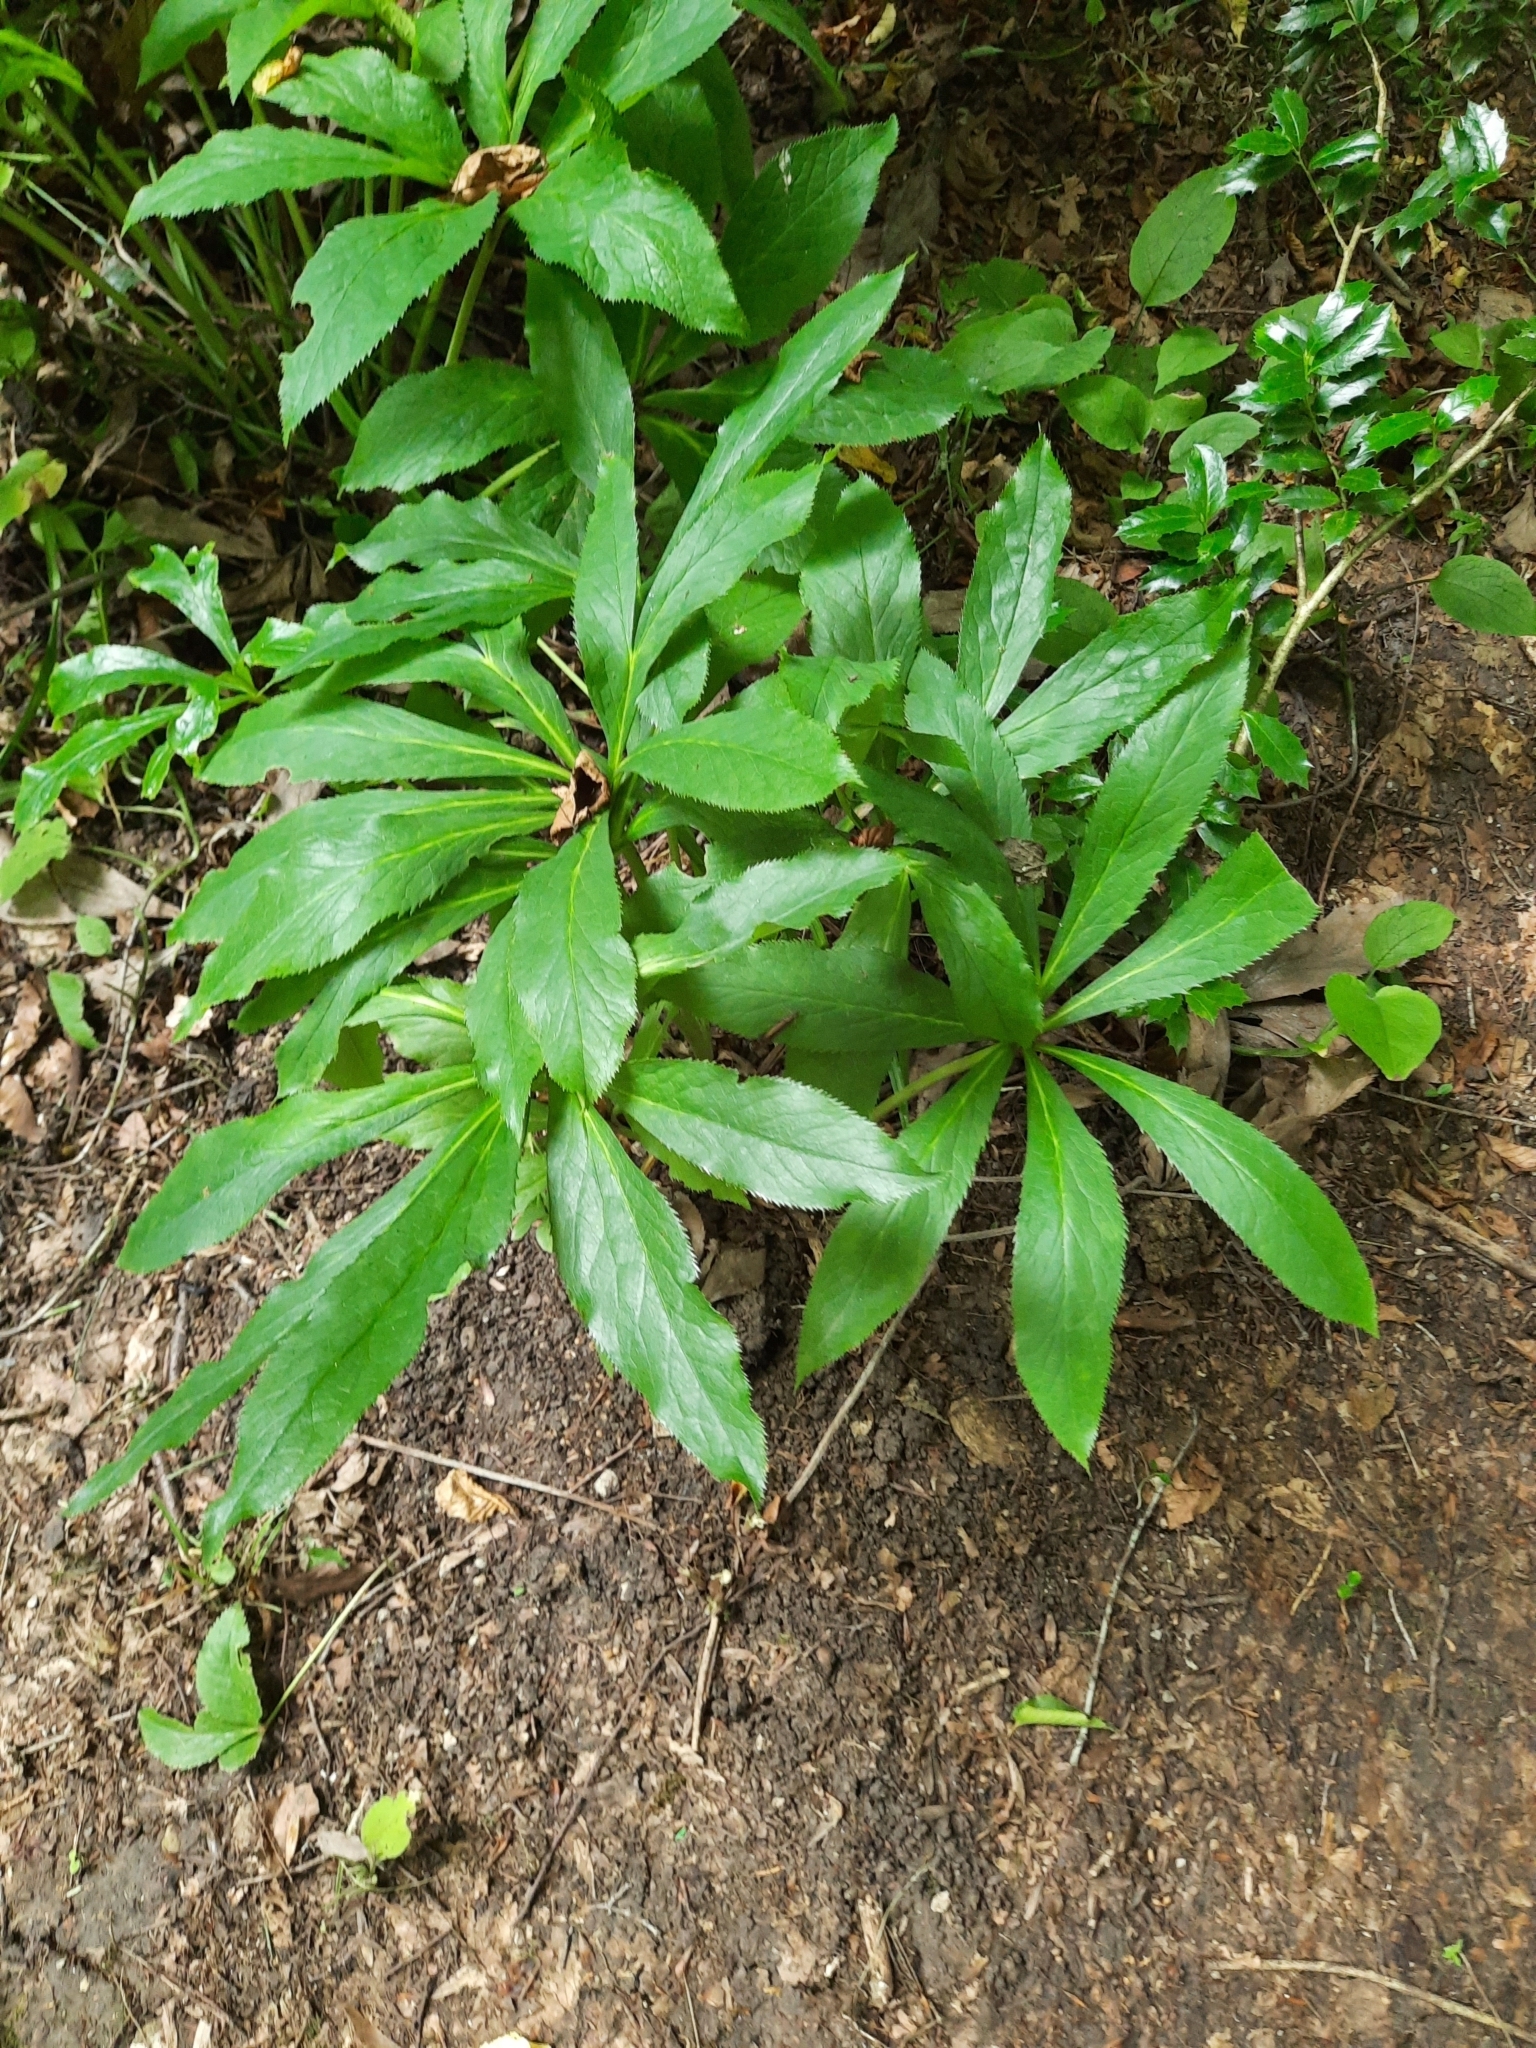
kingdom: Plantae
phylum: Tracheophyta
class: Magnoliopsida
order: Ranunculales
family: Ranunculaceae
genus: Helleborus
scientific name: Helleborus orientalis
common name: Lenten-rose
